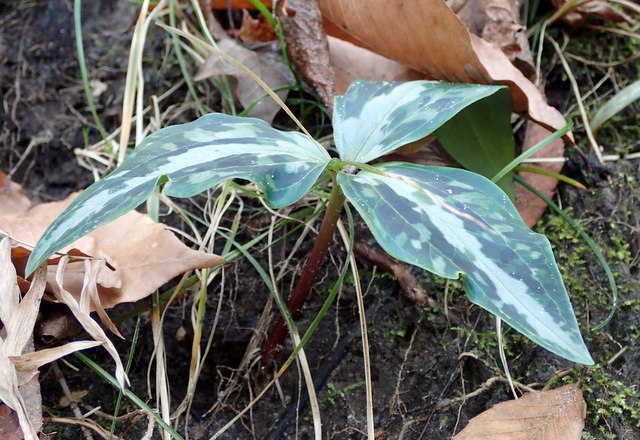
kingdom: Plantae
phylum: Tracheophyta
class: Liliopsida
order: Liliales
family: Melanthiaceae
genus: Trillium
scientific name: Trillium underwoodii
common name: Longbract wakerobin
